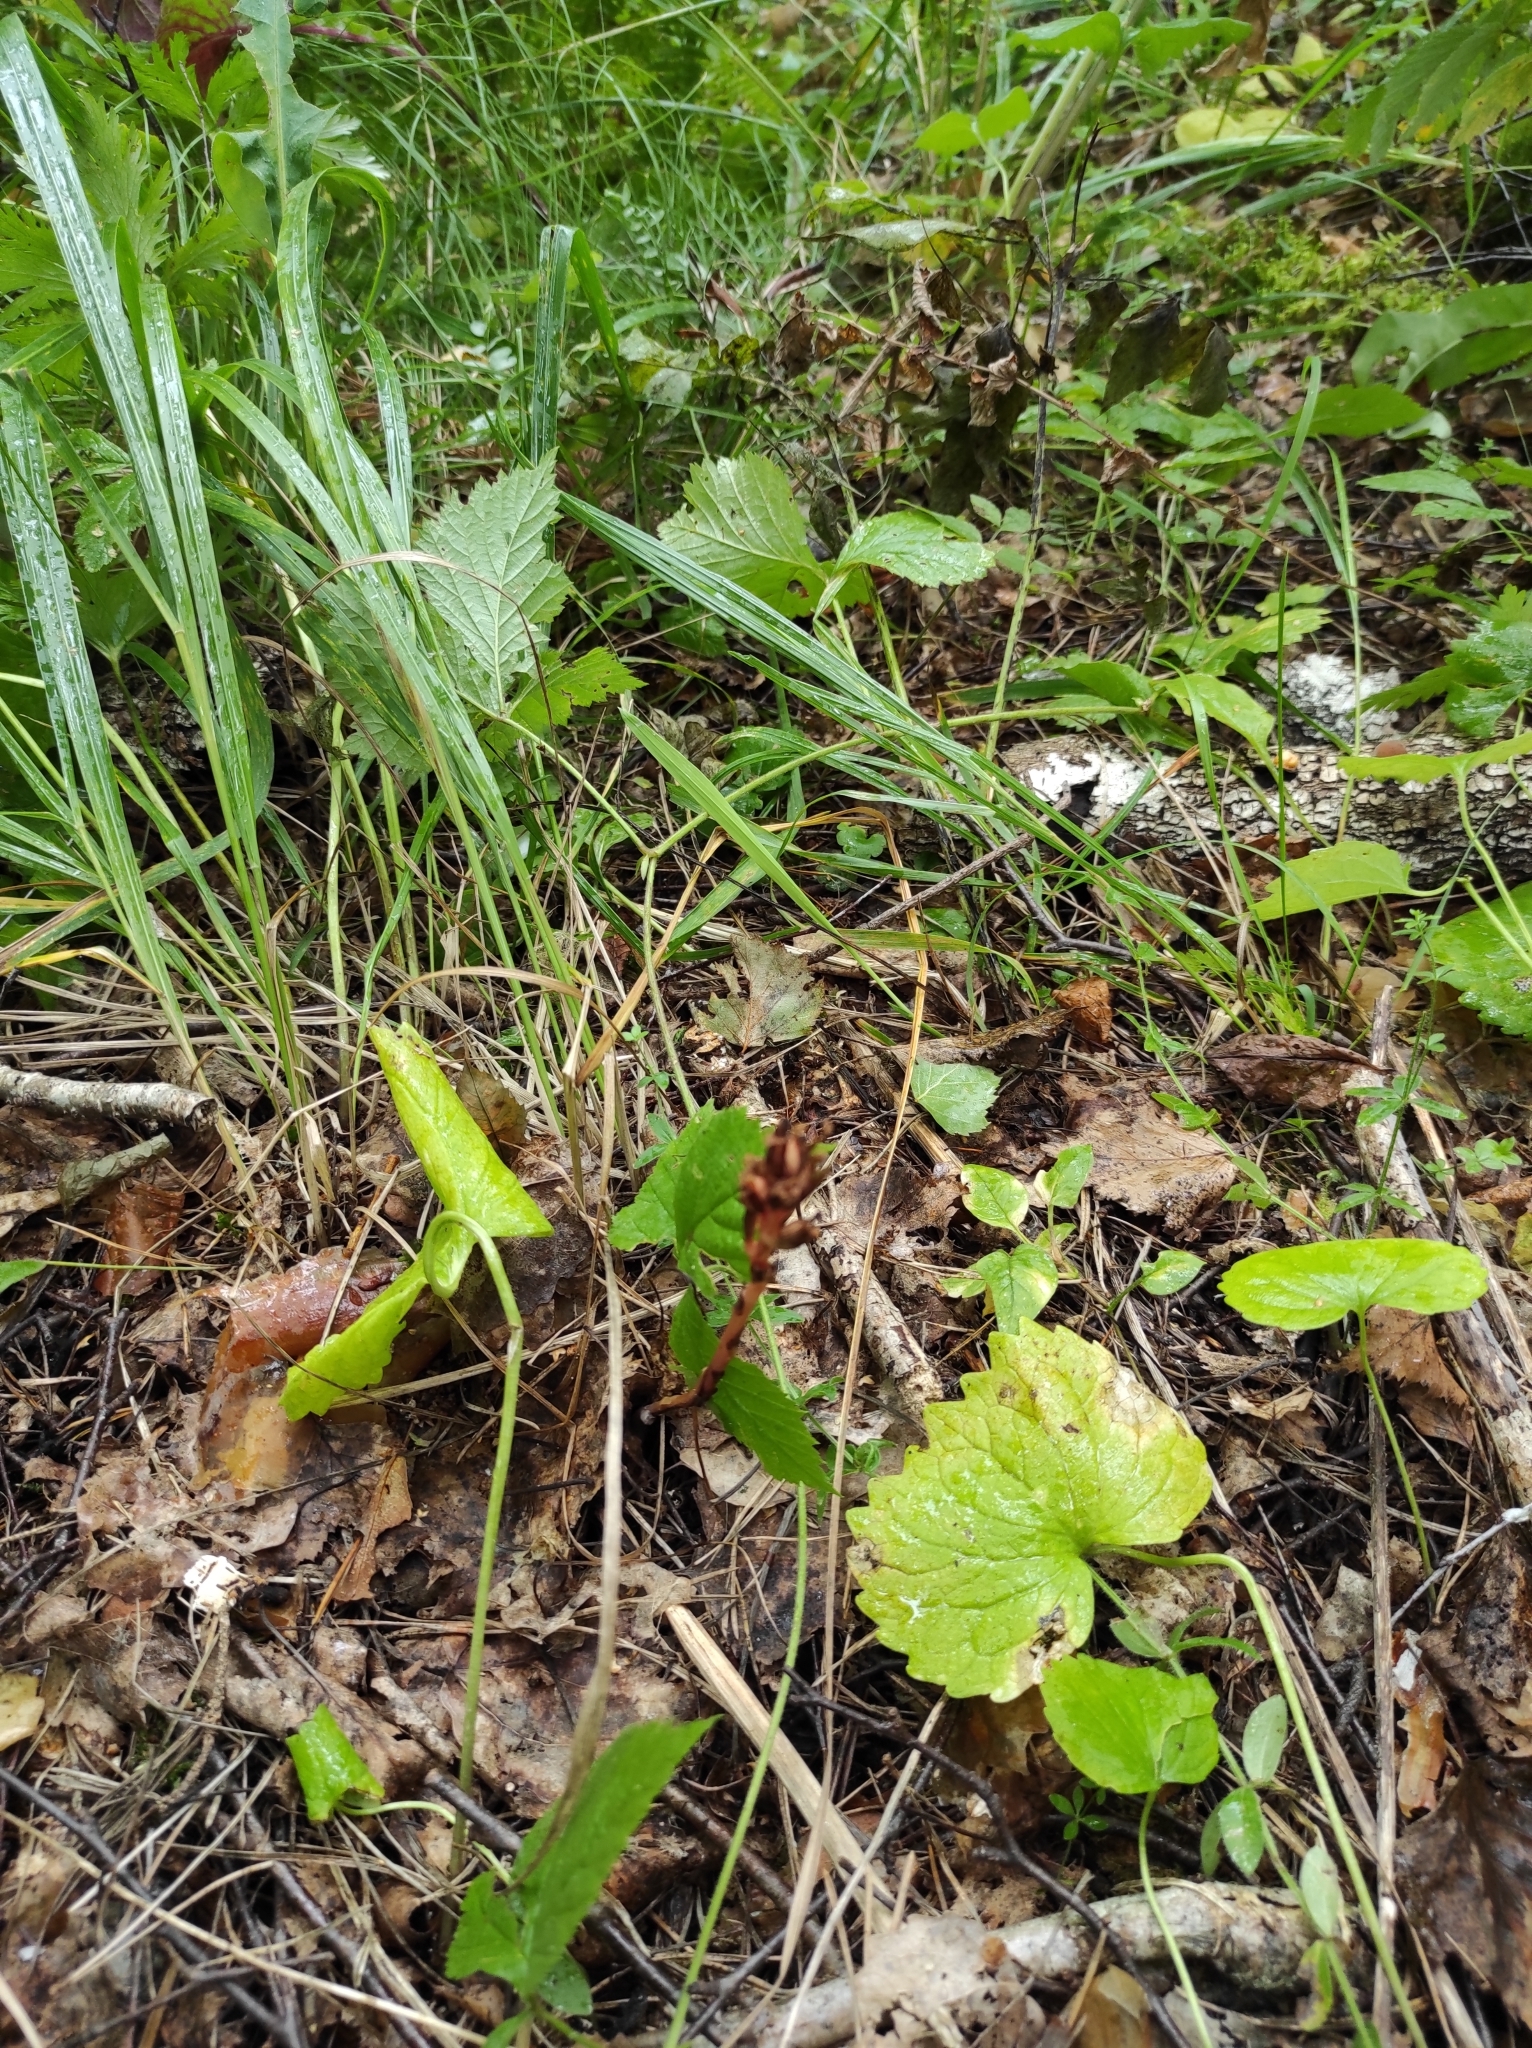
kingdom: Plantae
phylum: Tracheophyta
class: Magnoliopsida
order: Ericales
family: Ericaceae
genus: Hypopitys
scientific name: Hypopitys monotropa
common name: Yellow bird's-nest
